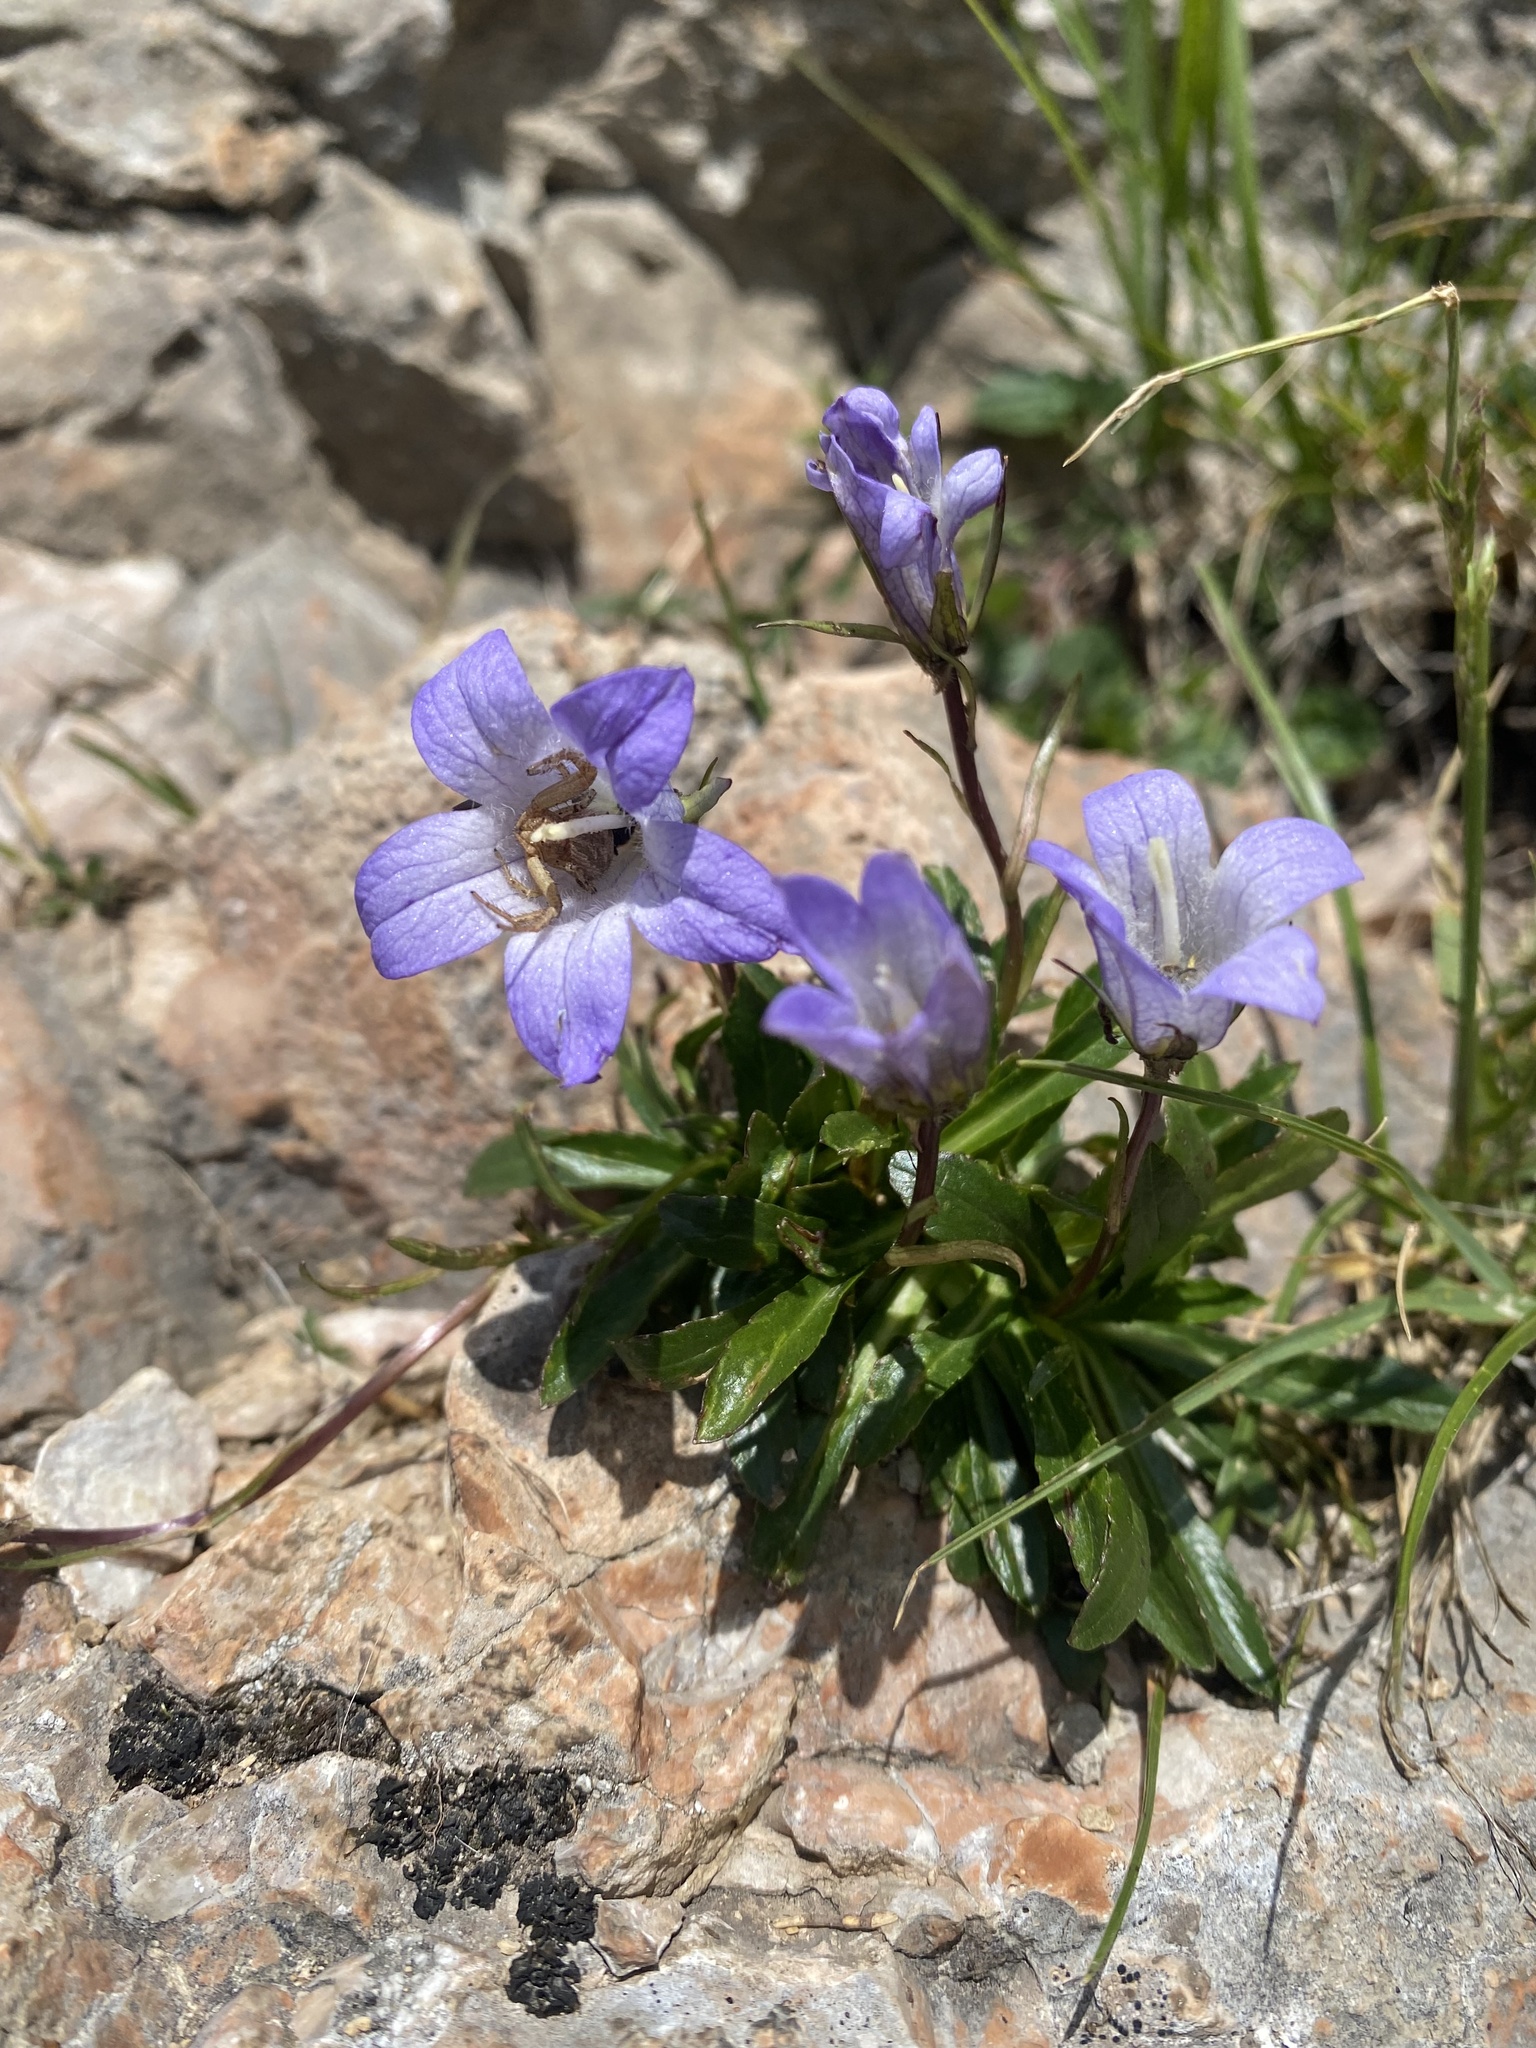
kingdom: Plantae
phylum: Tracheophyta
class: Magnoliopsida
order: Asterales
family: Campanulaceae
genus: Campanula
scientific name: Campanula ciliata
